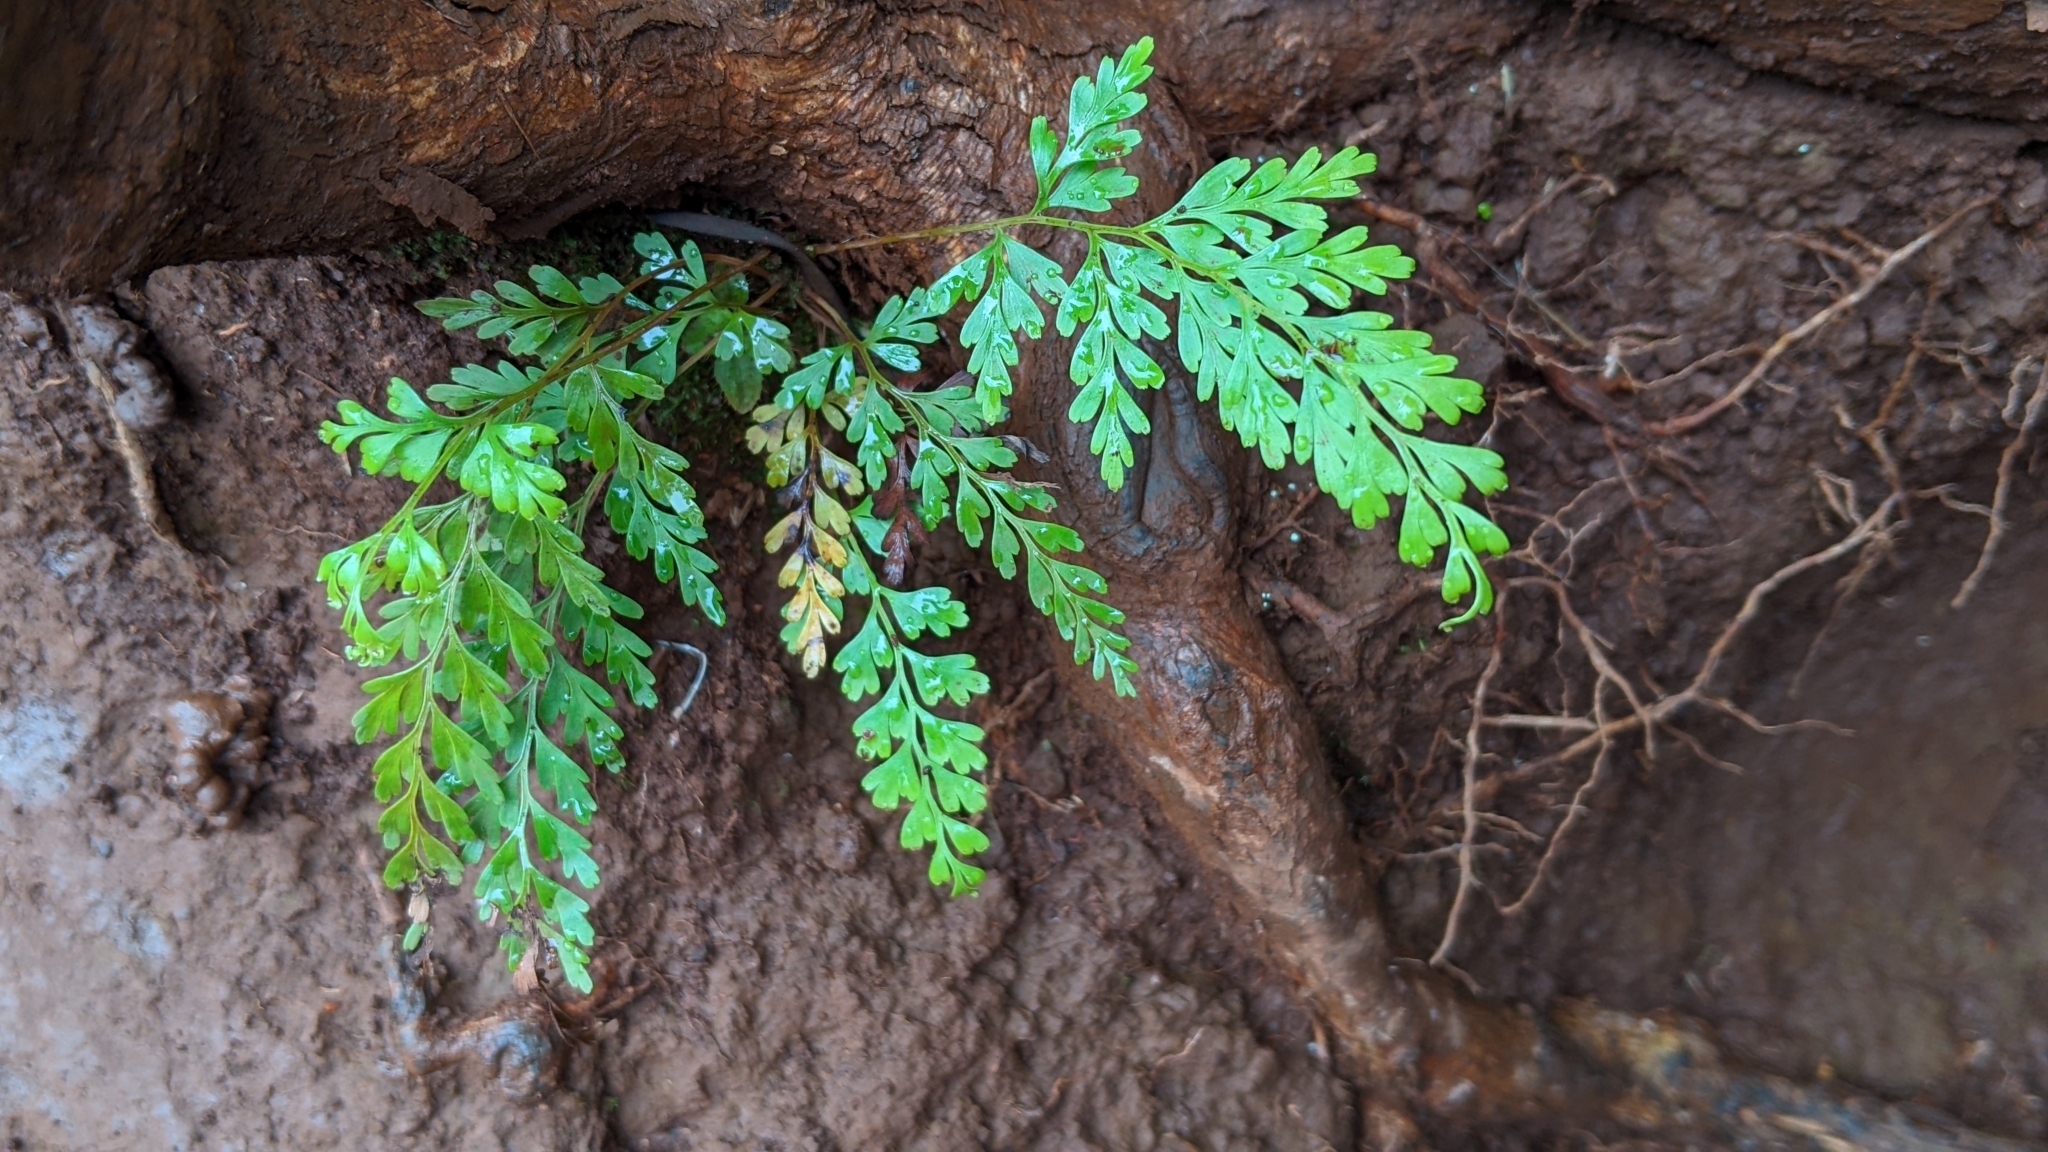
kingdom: Plantae
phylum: Tracheophyta
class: Polypodiopsida
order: Polypodiales
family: Lindsaeaceae
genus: Odontosoria
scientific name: Odontosoria chinensis
